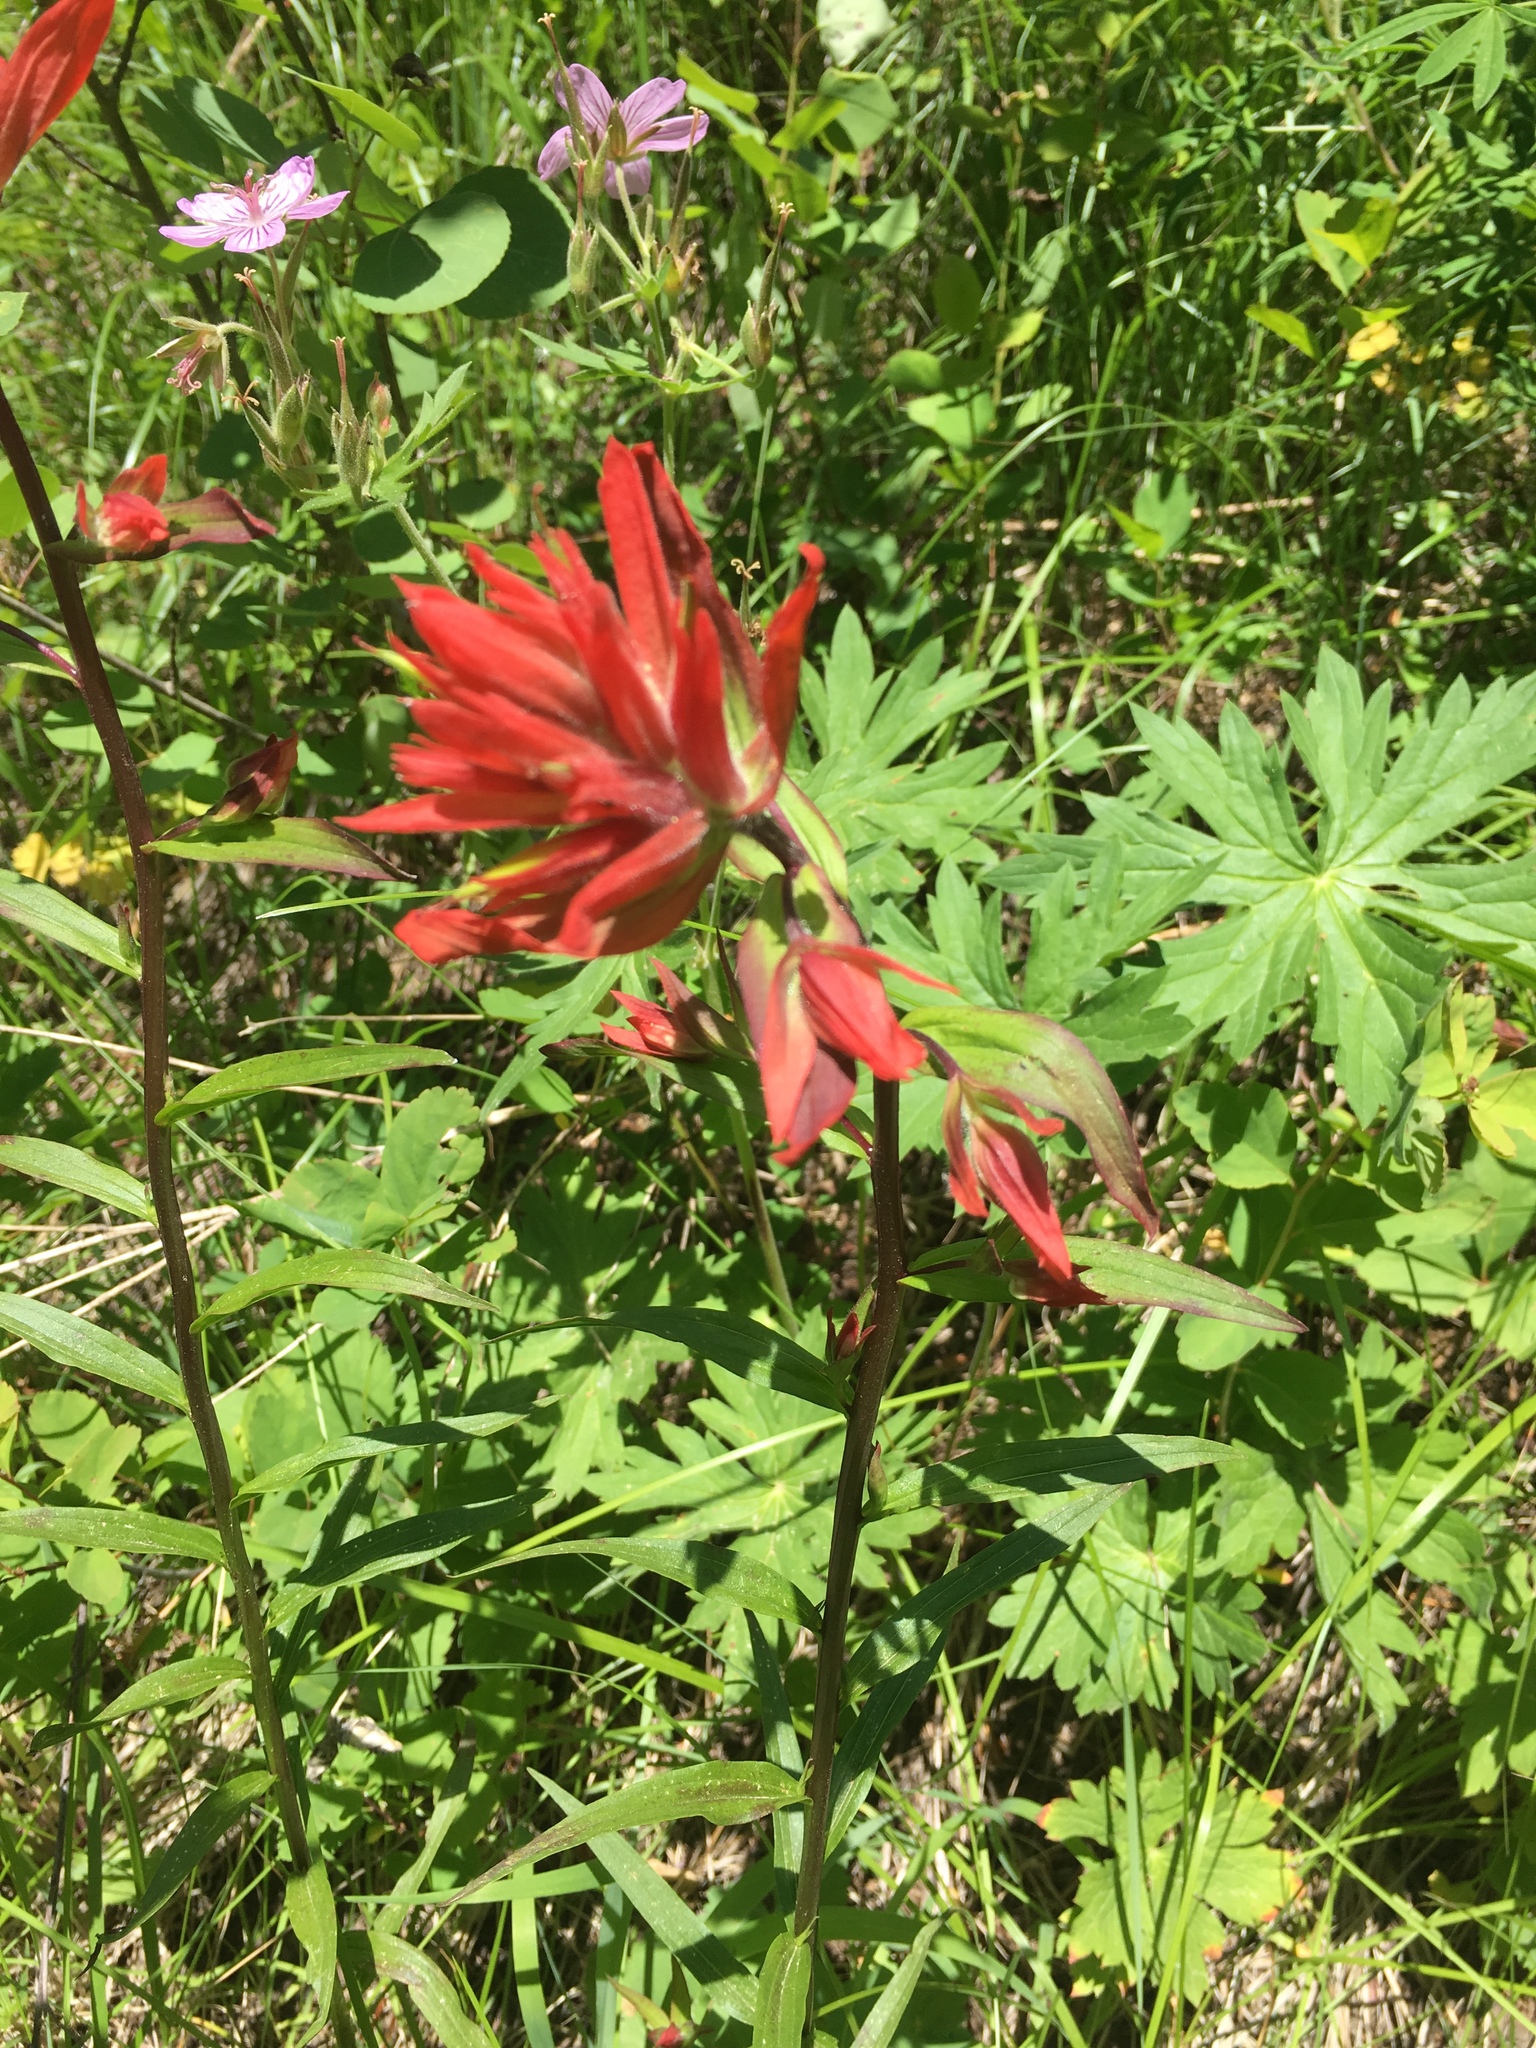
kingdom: Plantae
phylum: Tracheophyta
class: Magnoliopsida
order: Lamiales
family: Orobanchaceae
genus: Castilleja
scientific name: Castilleja miniata
